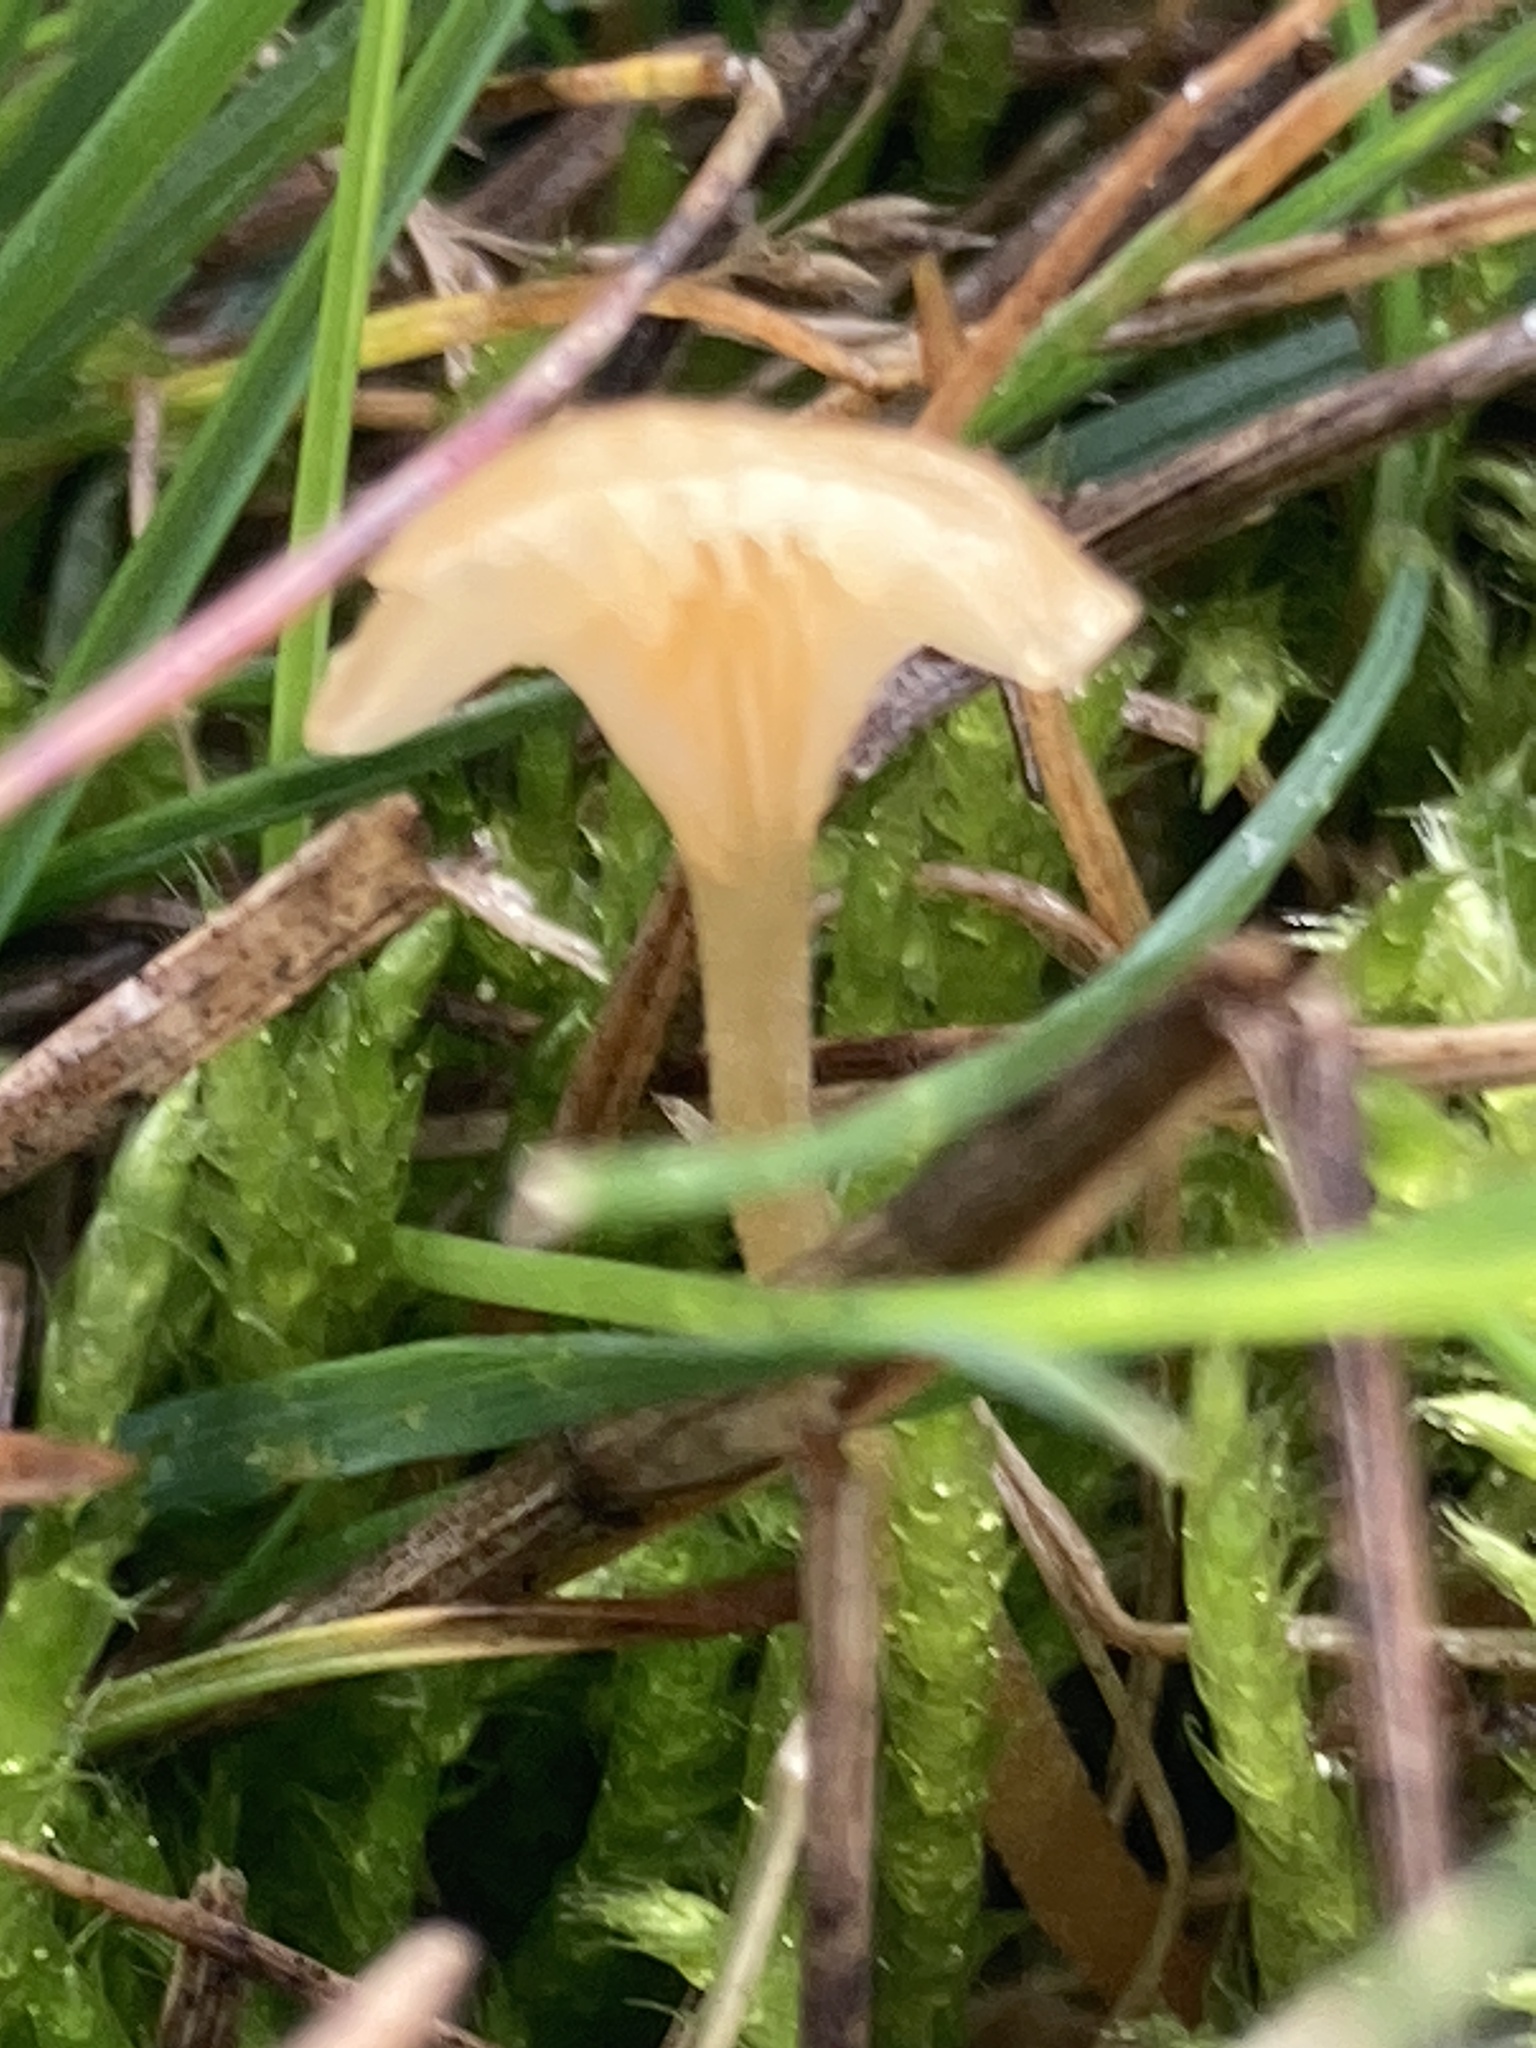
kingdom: Fungi
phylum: Basidiomycota
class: Agaricomycetes
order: Hymenochaetales
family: Rickenellaceae
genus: Rickenella
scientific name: Rickenella fibula
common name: Orange mosscap
